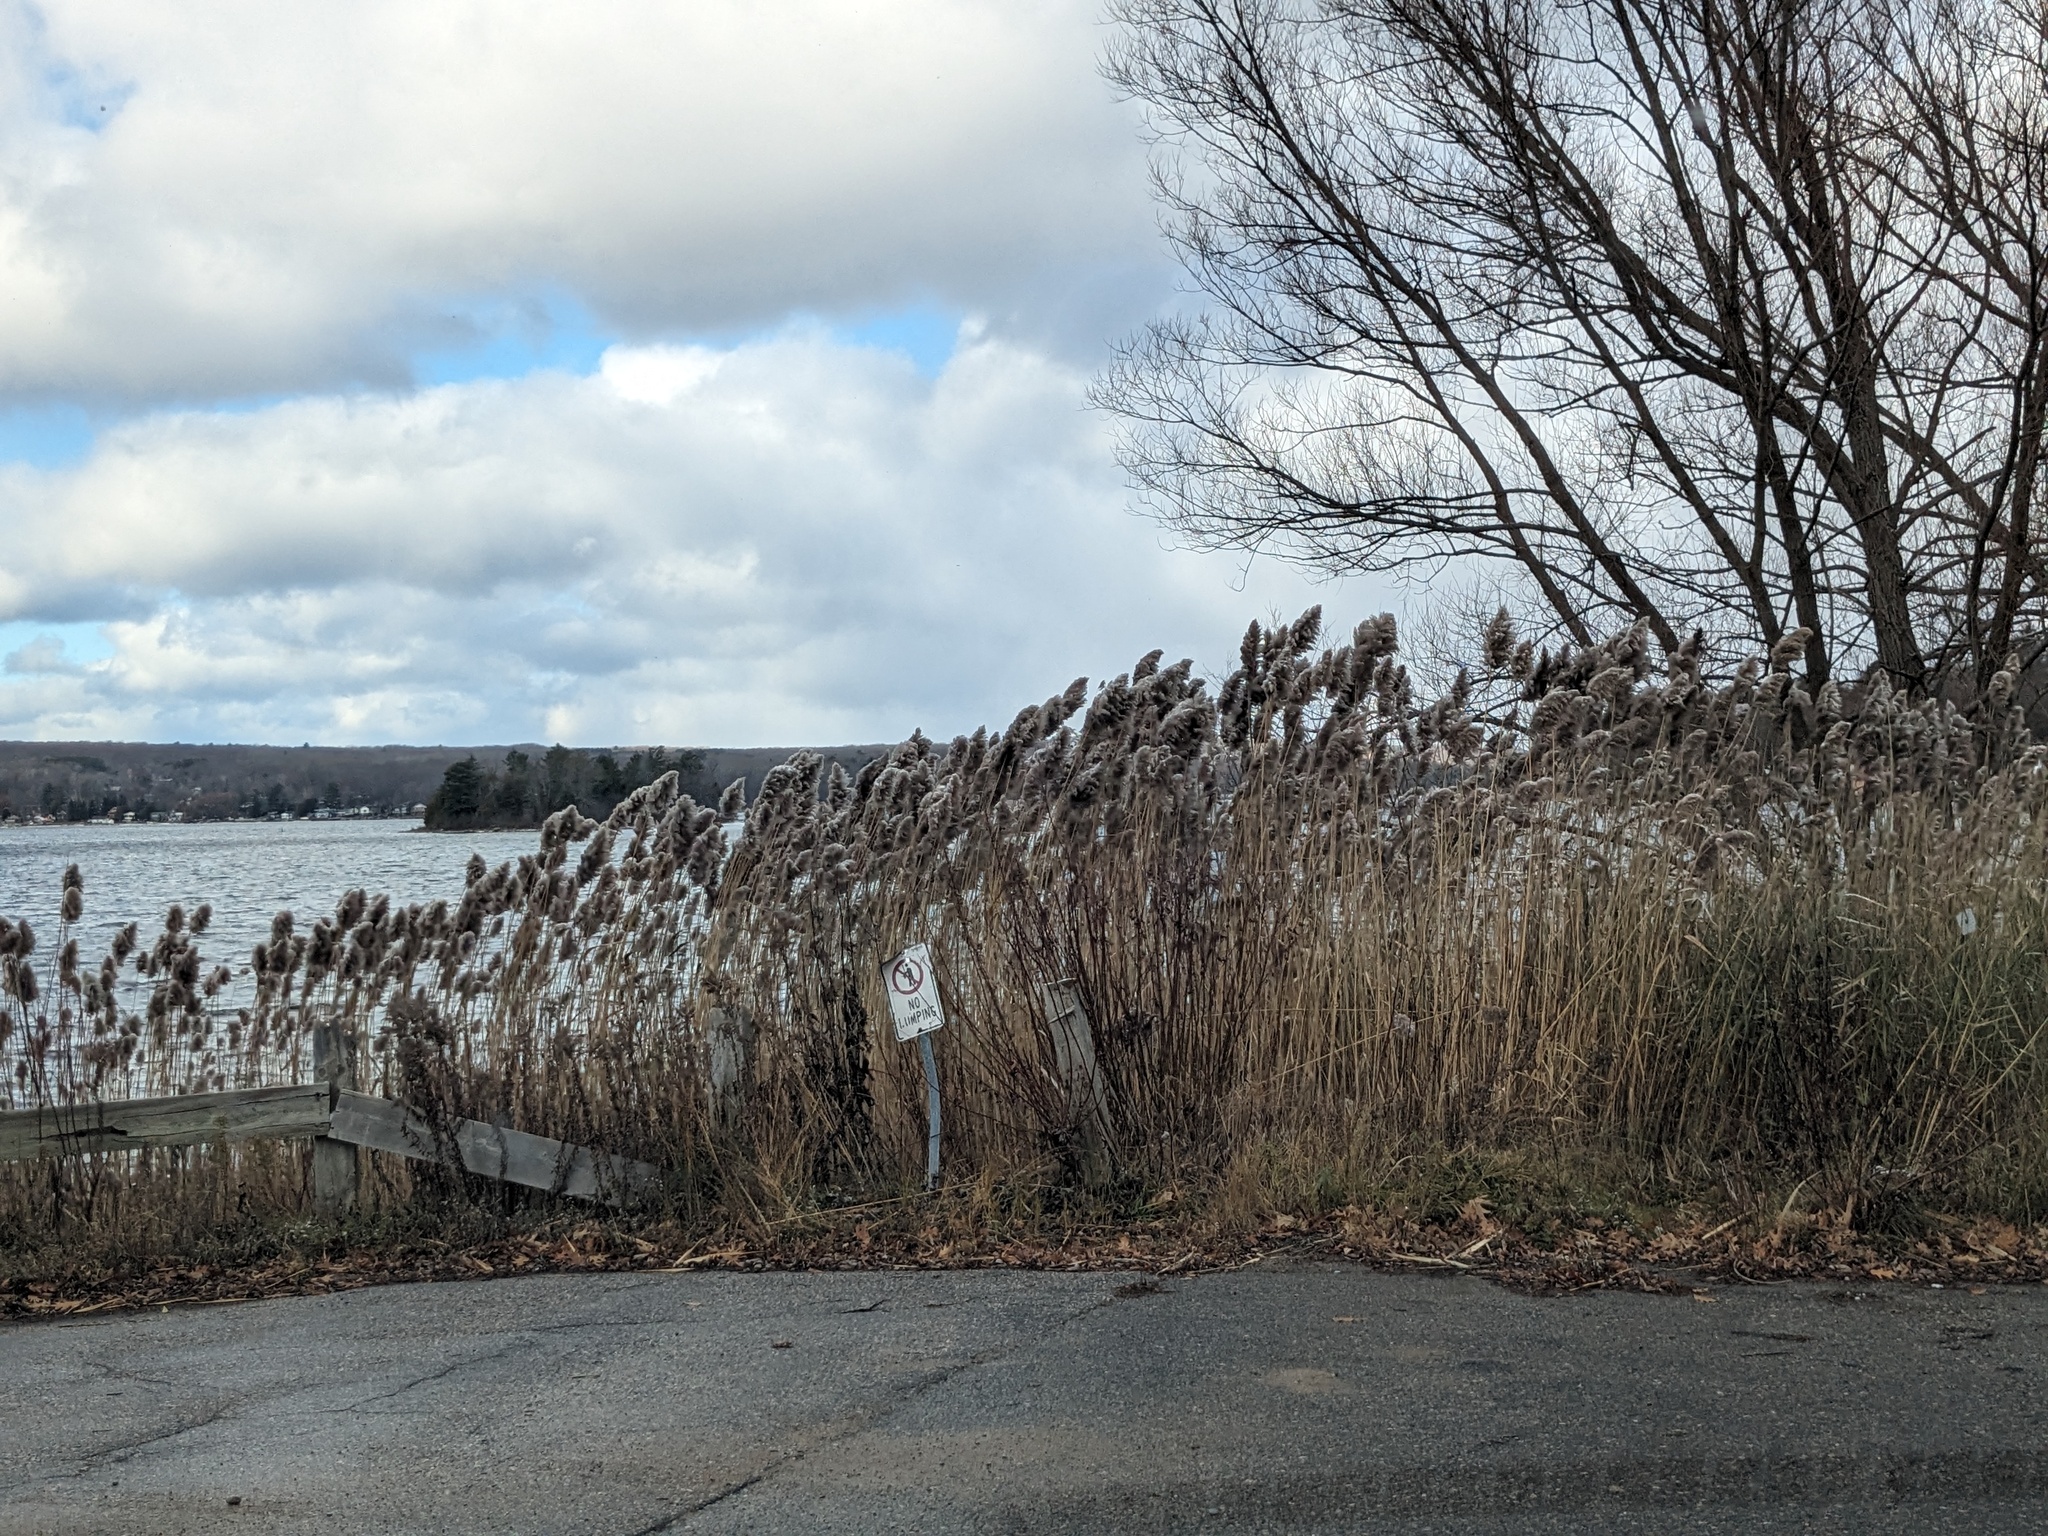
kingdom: Plantae
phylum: Tracheophyta
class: Liliopsida
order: Poales
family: Poaceae
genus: Phragmites
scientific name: Phragmites australis
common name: Common reed
